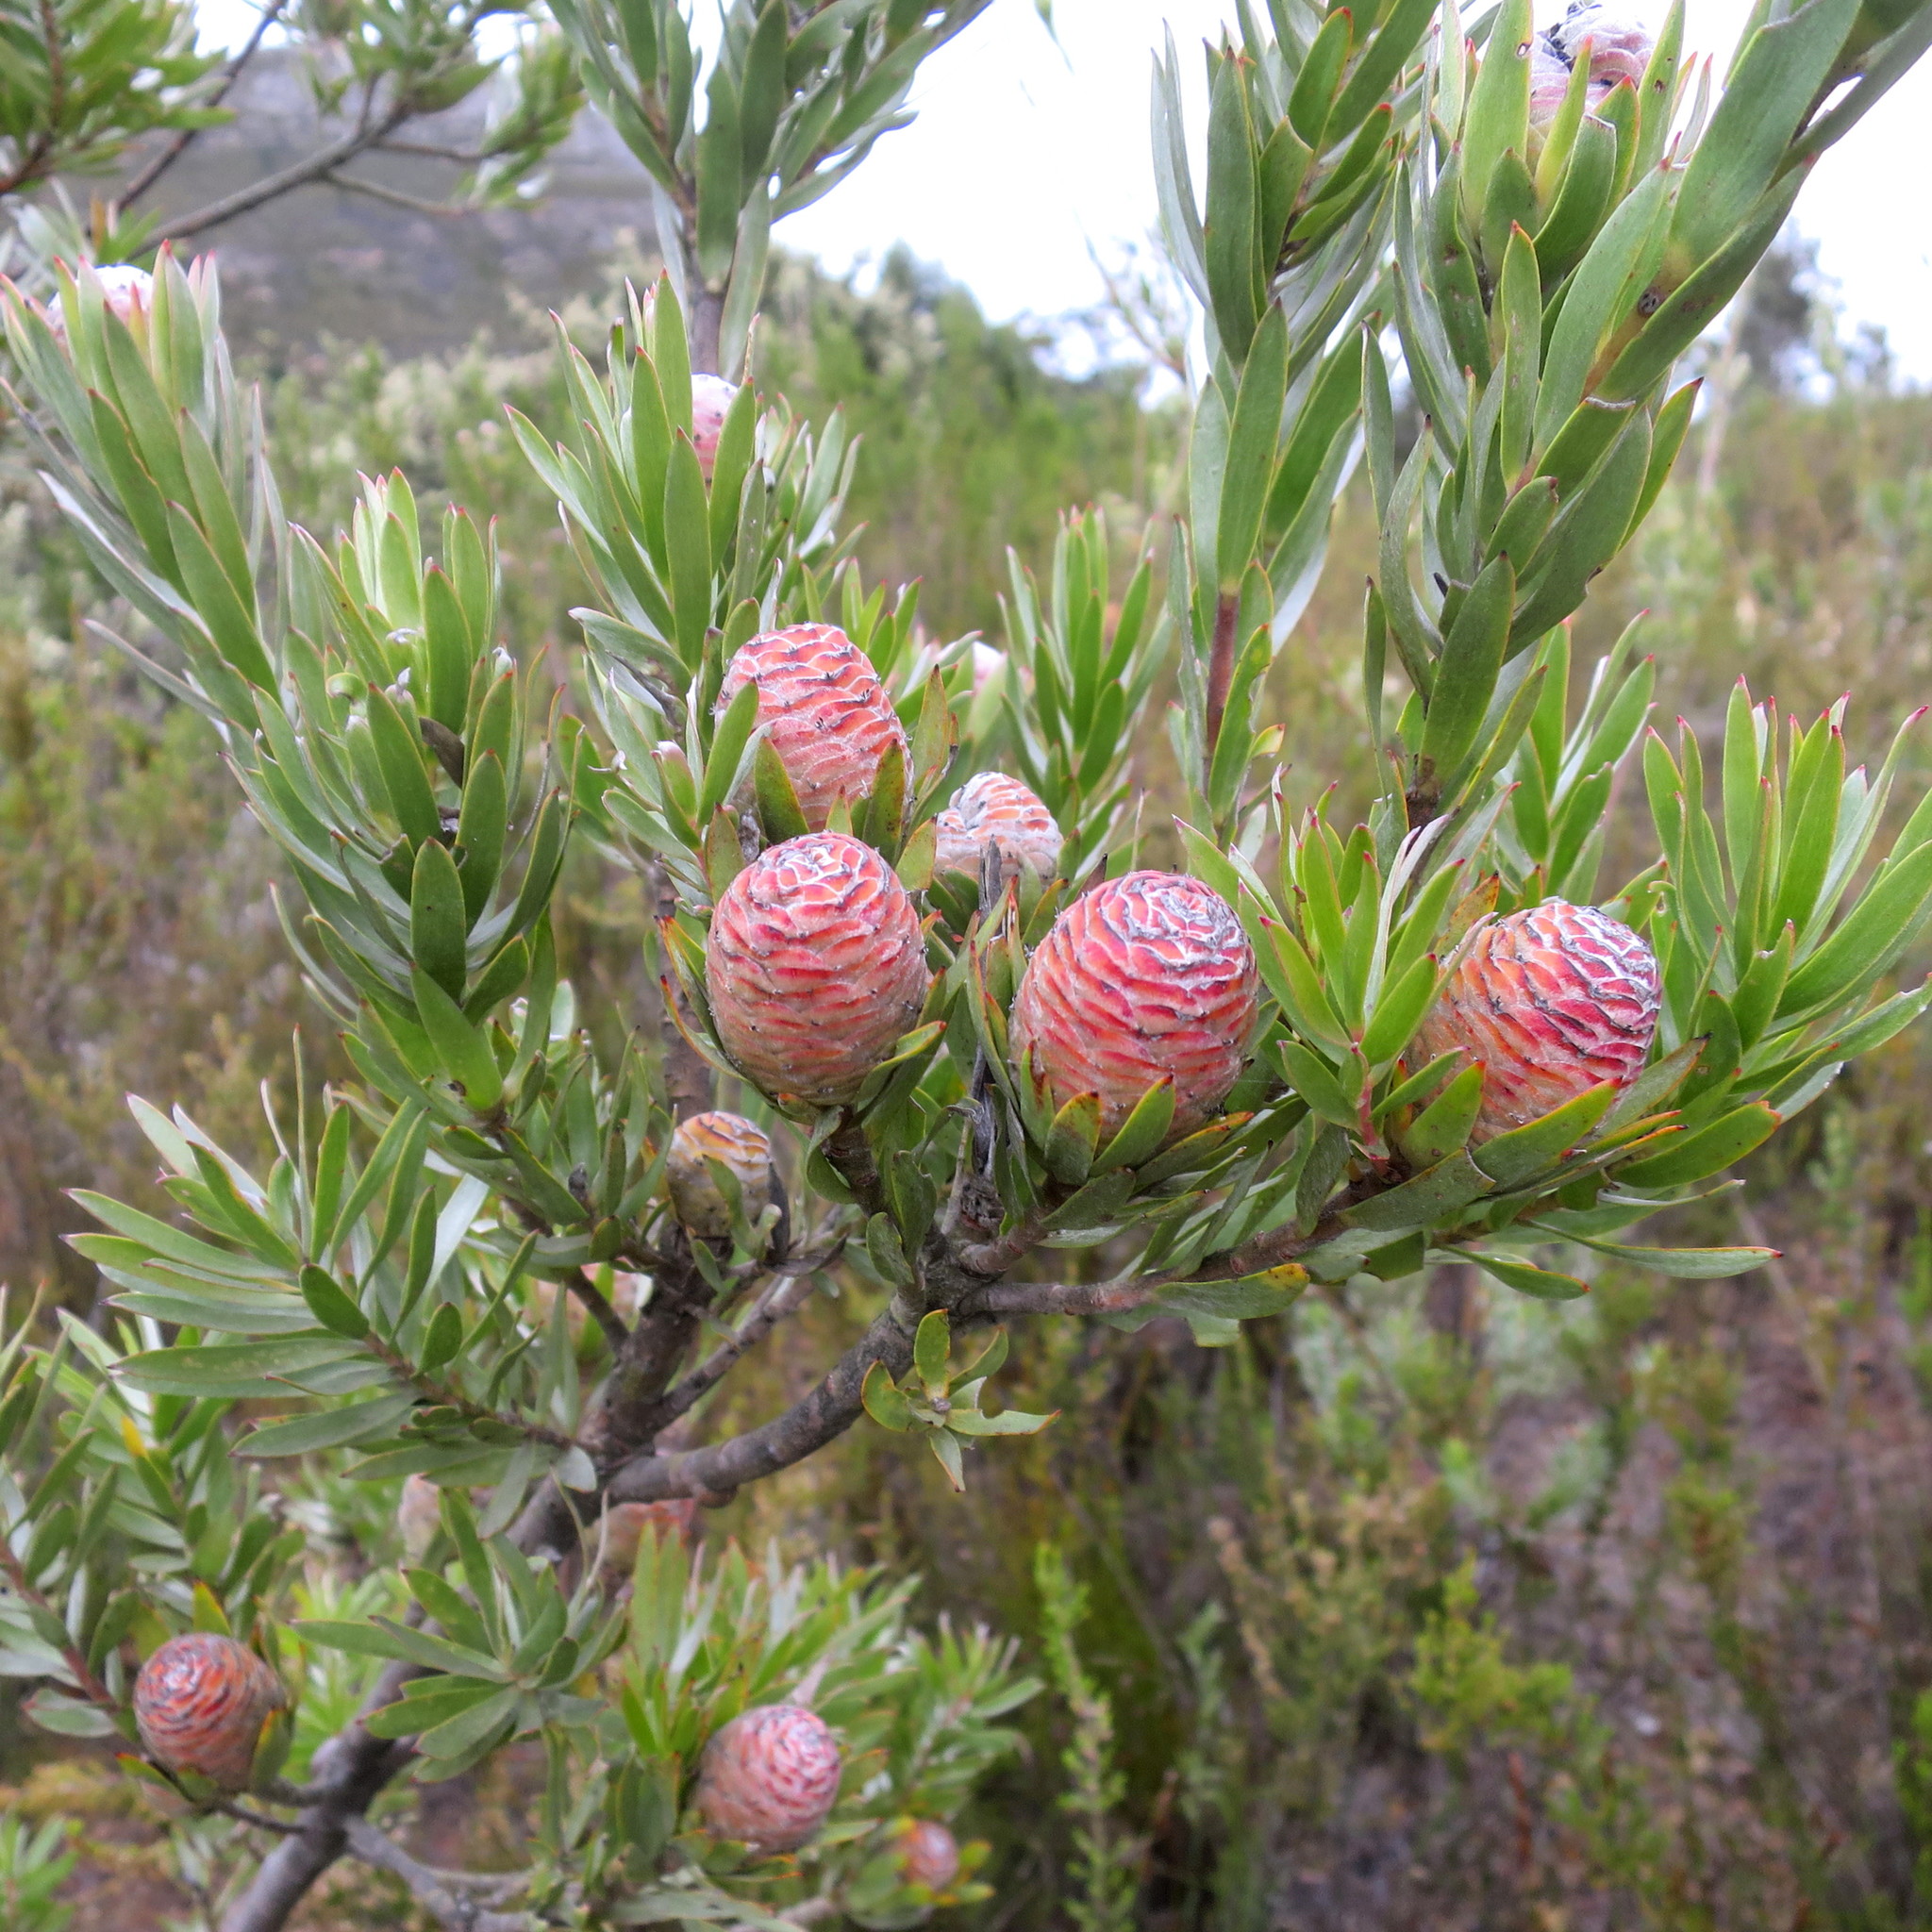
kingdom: Plantae
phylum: Tracheophyta
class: Magnoliopsida
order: Proteales
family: Proteaceae
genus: Leucadendron
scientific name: Leucadendron uliginosum
